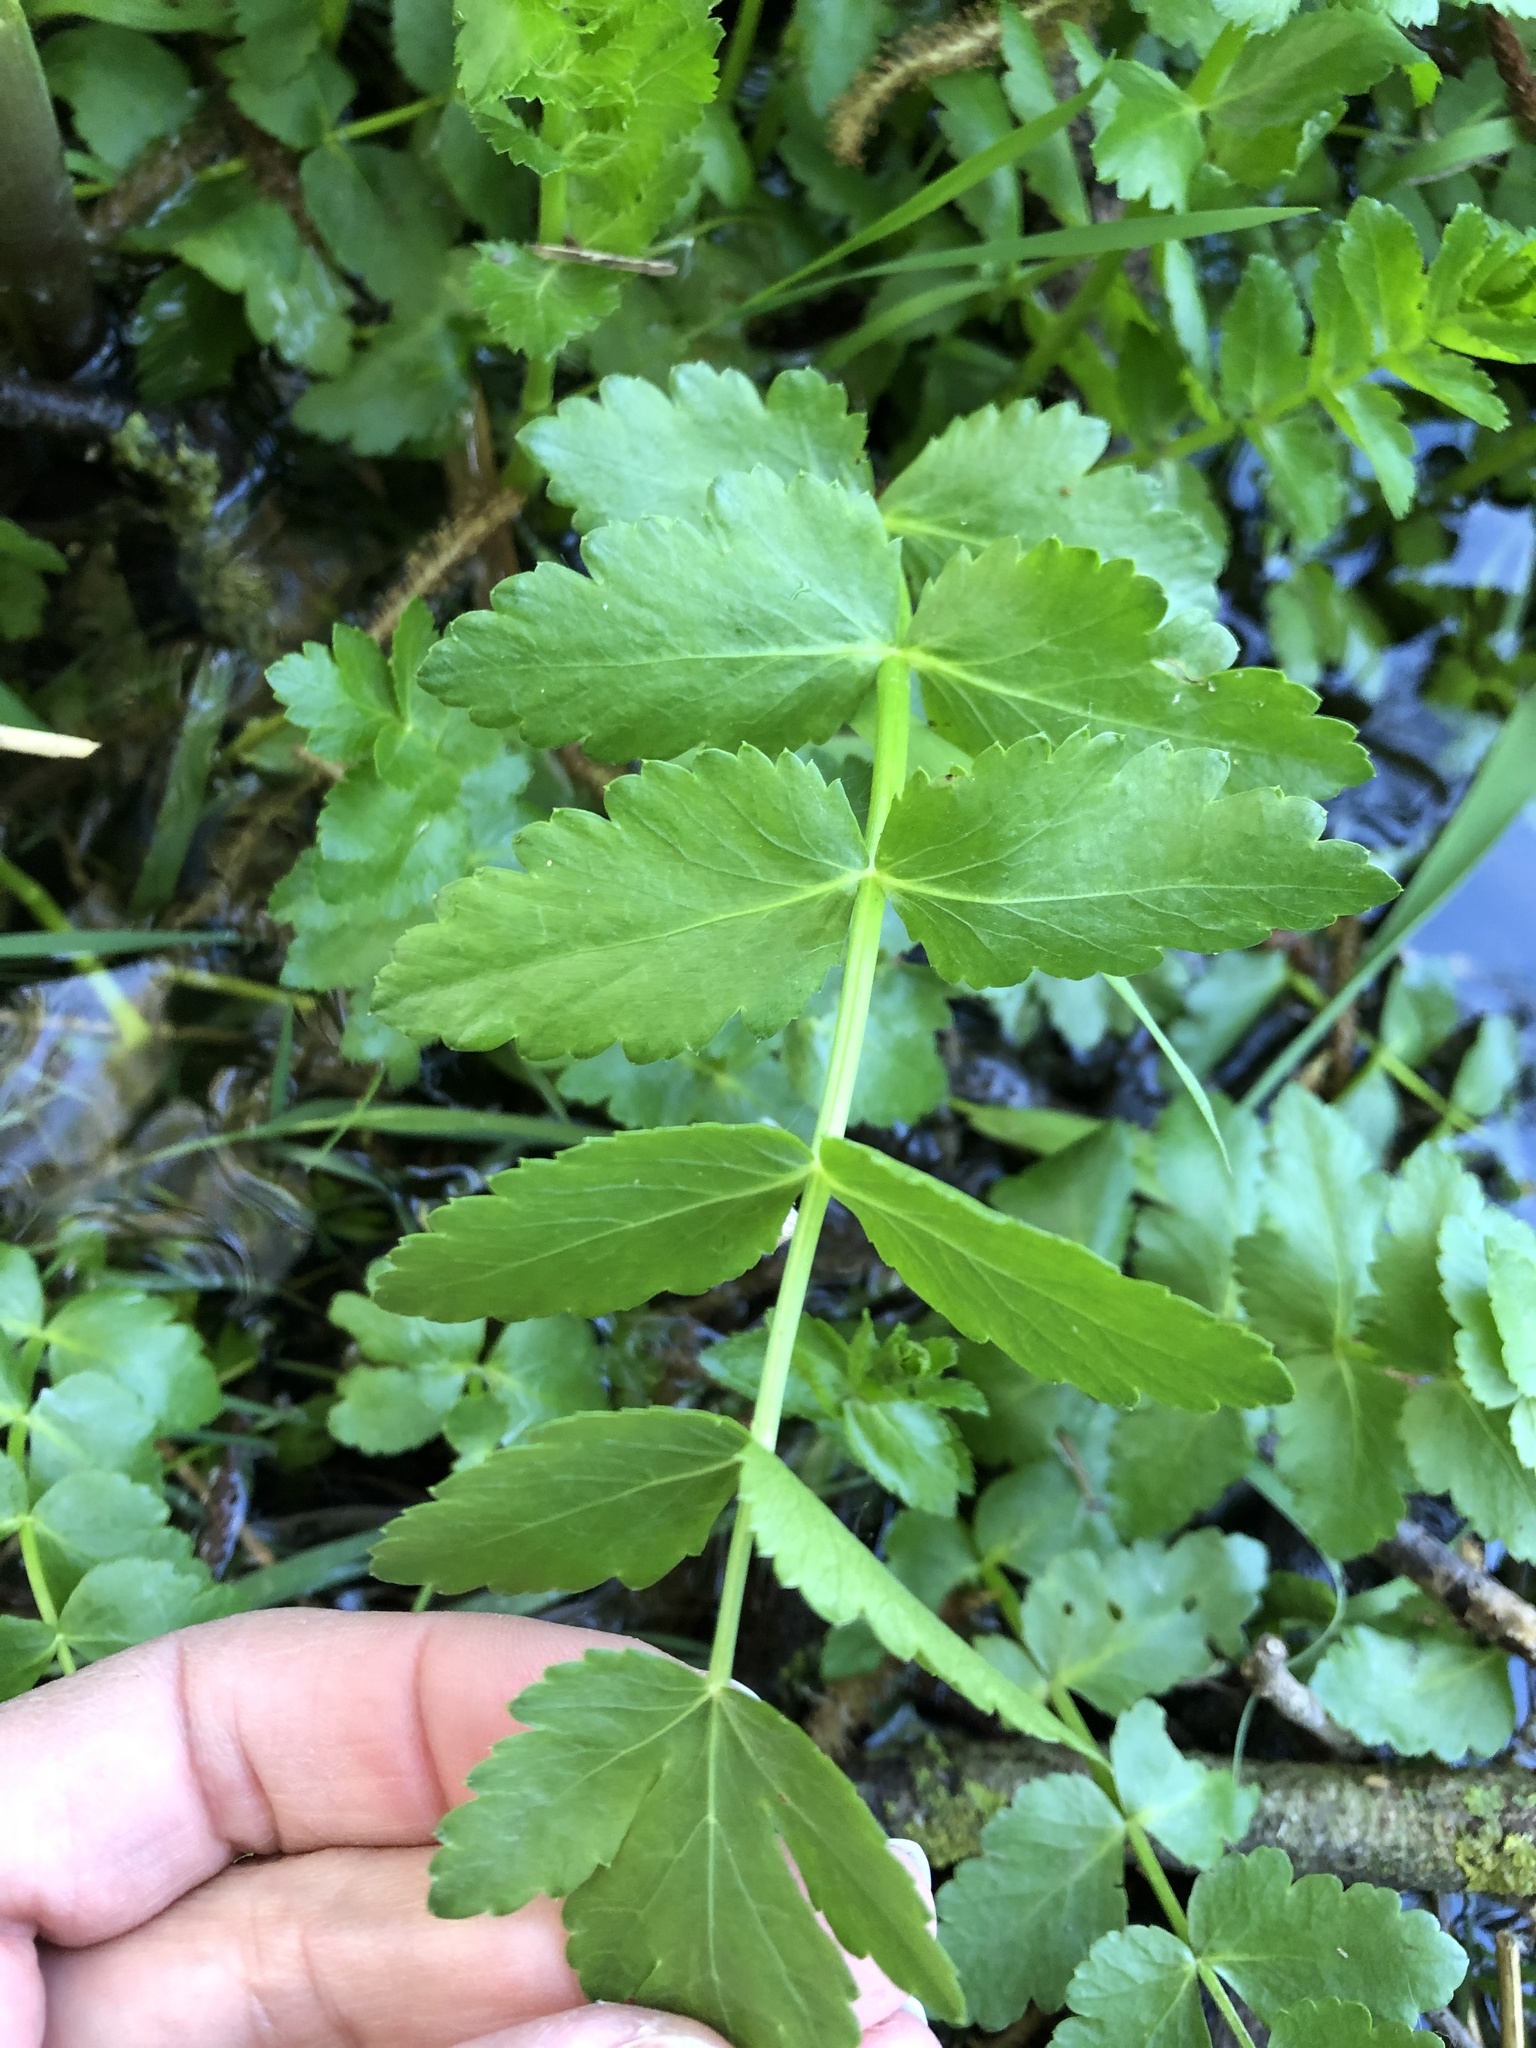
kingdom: Plantae
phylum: Tracheophyta
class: Magnoliopsida
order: Apiales
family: Apiaceae
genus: Berula
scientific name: Berula erecta
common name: Lesser water-parsnip
